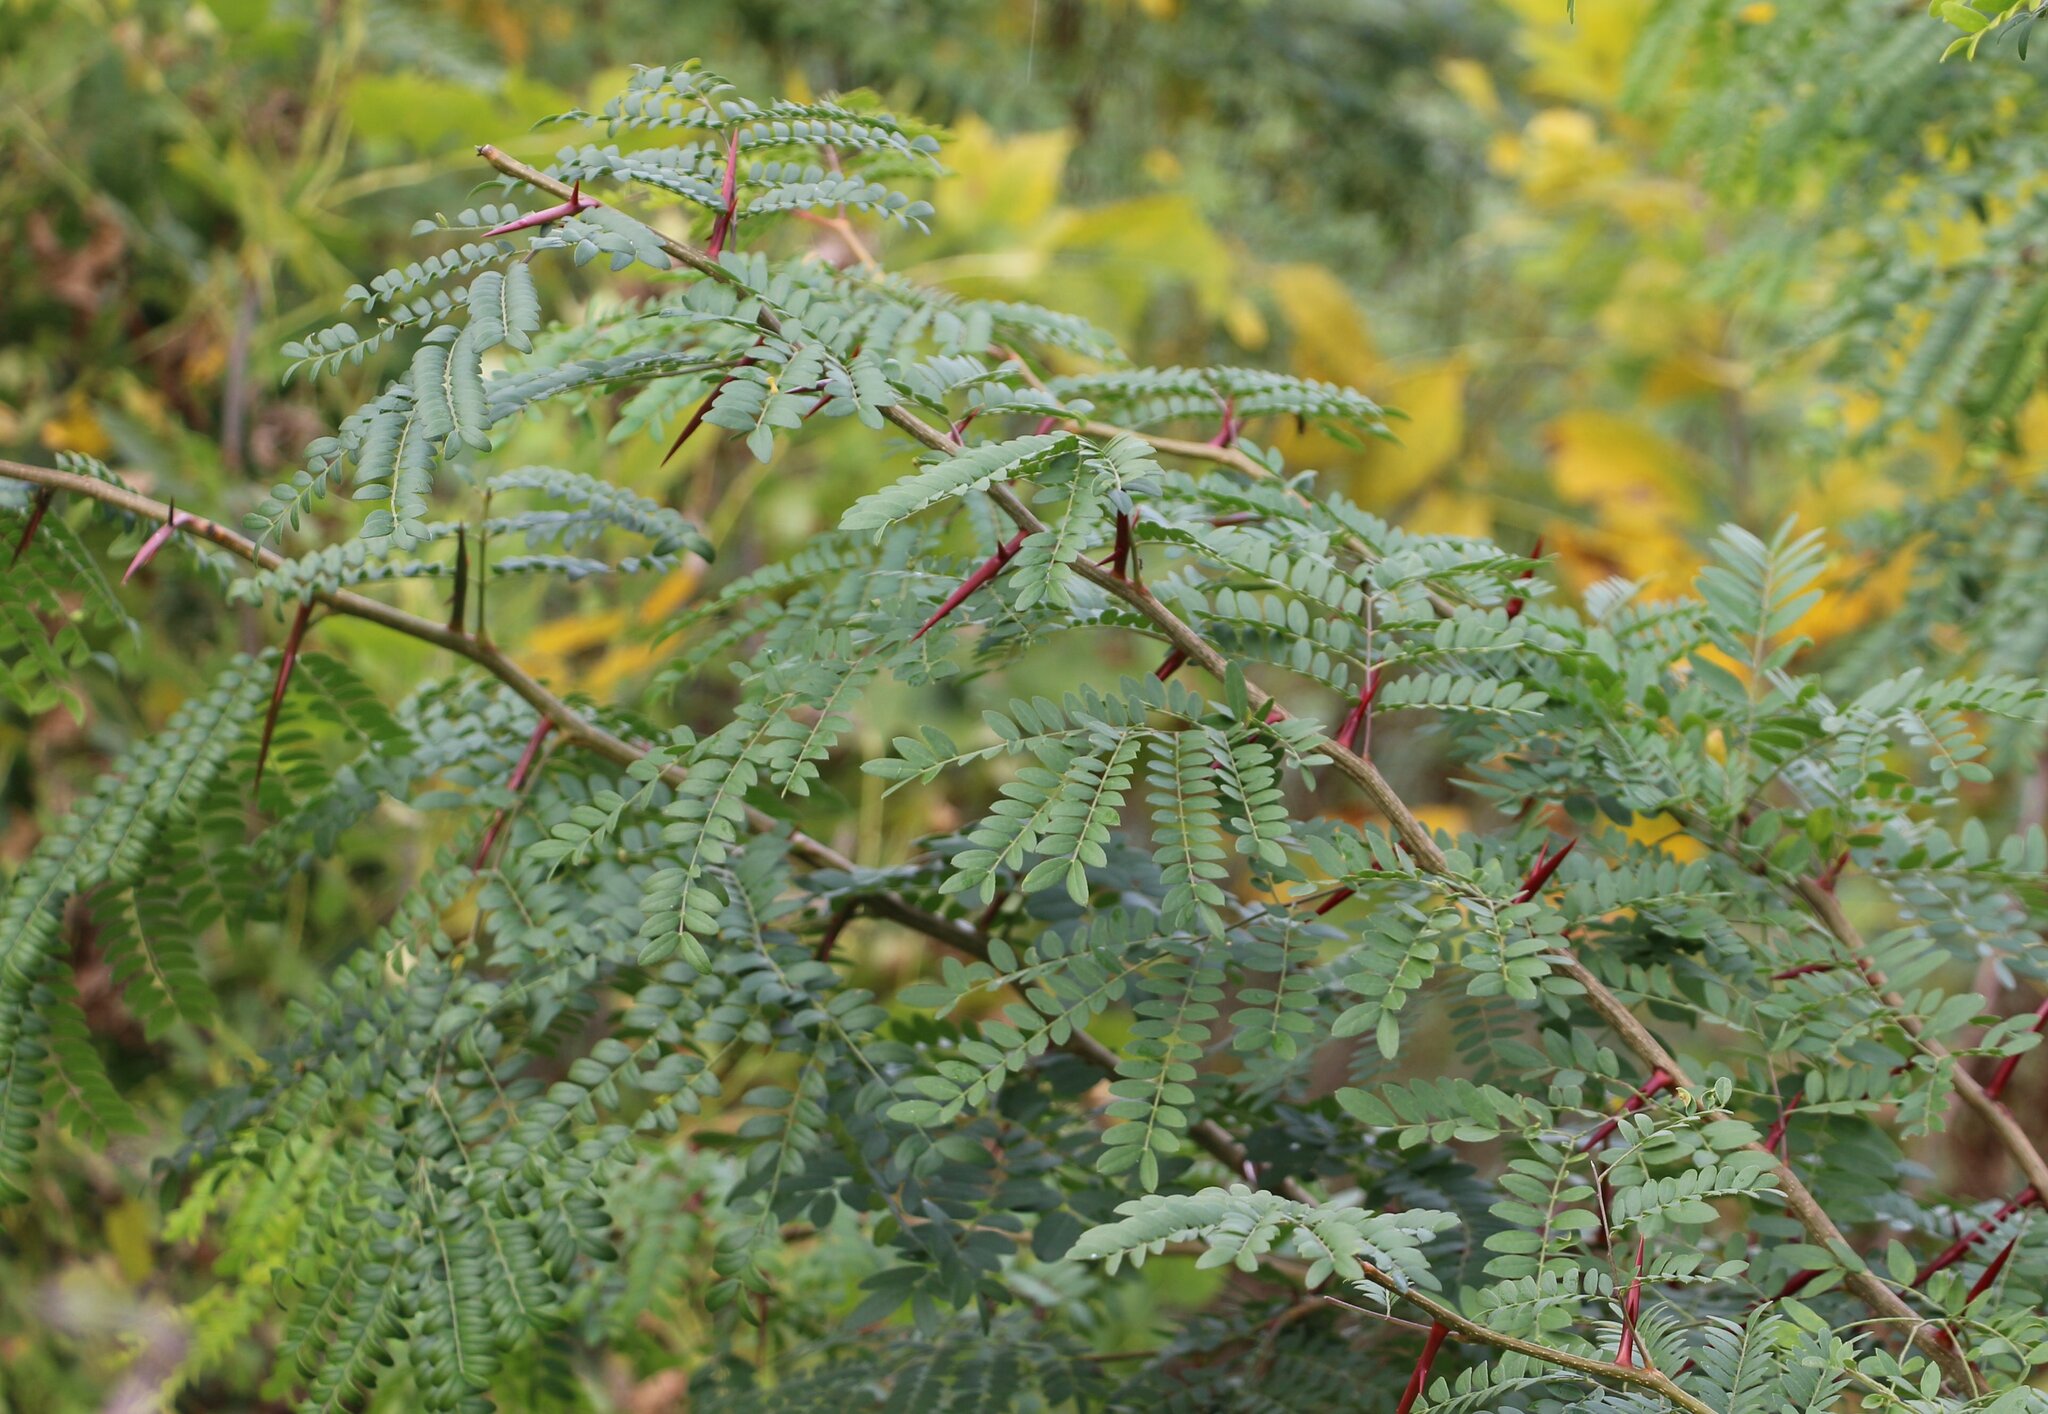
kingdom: Plantae
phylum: Tracheophyta
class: Magnoliopsida
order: Fabales
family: Fabaceae
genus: Gleditsia
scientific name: Gleditsia triacanthos
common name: Common honeylocust
